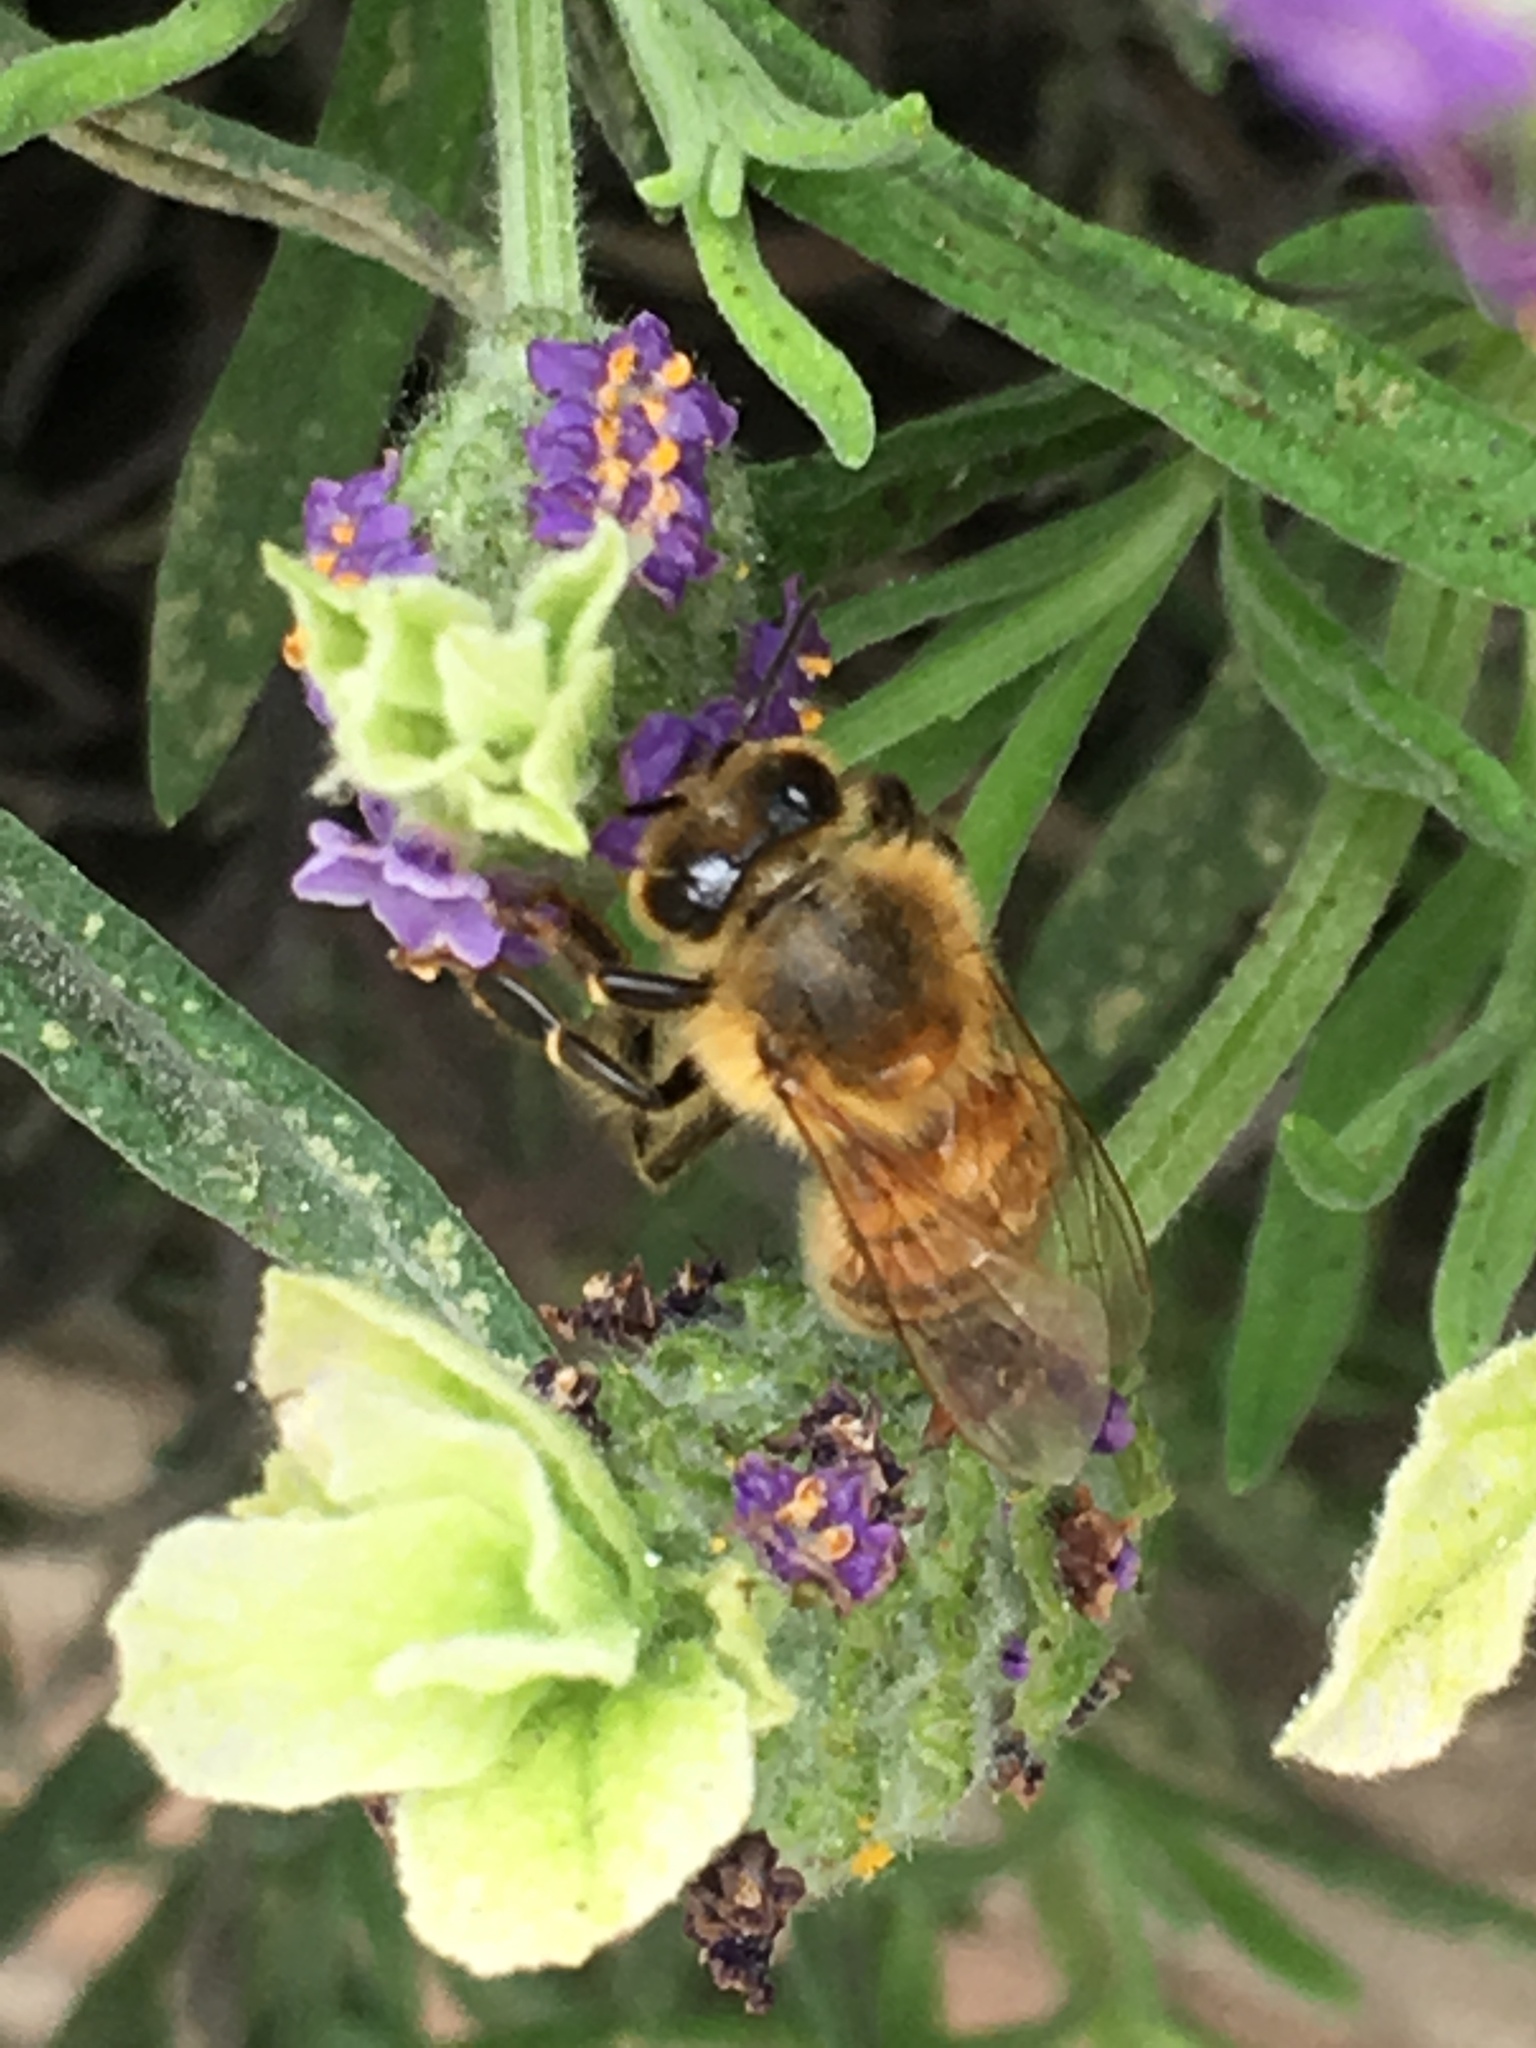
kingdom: Animalia
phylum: Arthropoda
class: Insecta
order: Hymenoptera
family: Apidae
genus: Apis
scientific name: Apis mellifera
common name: Honey bee
